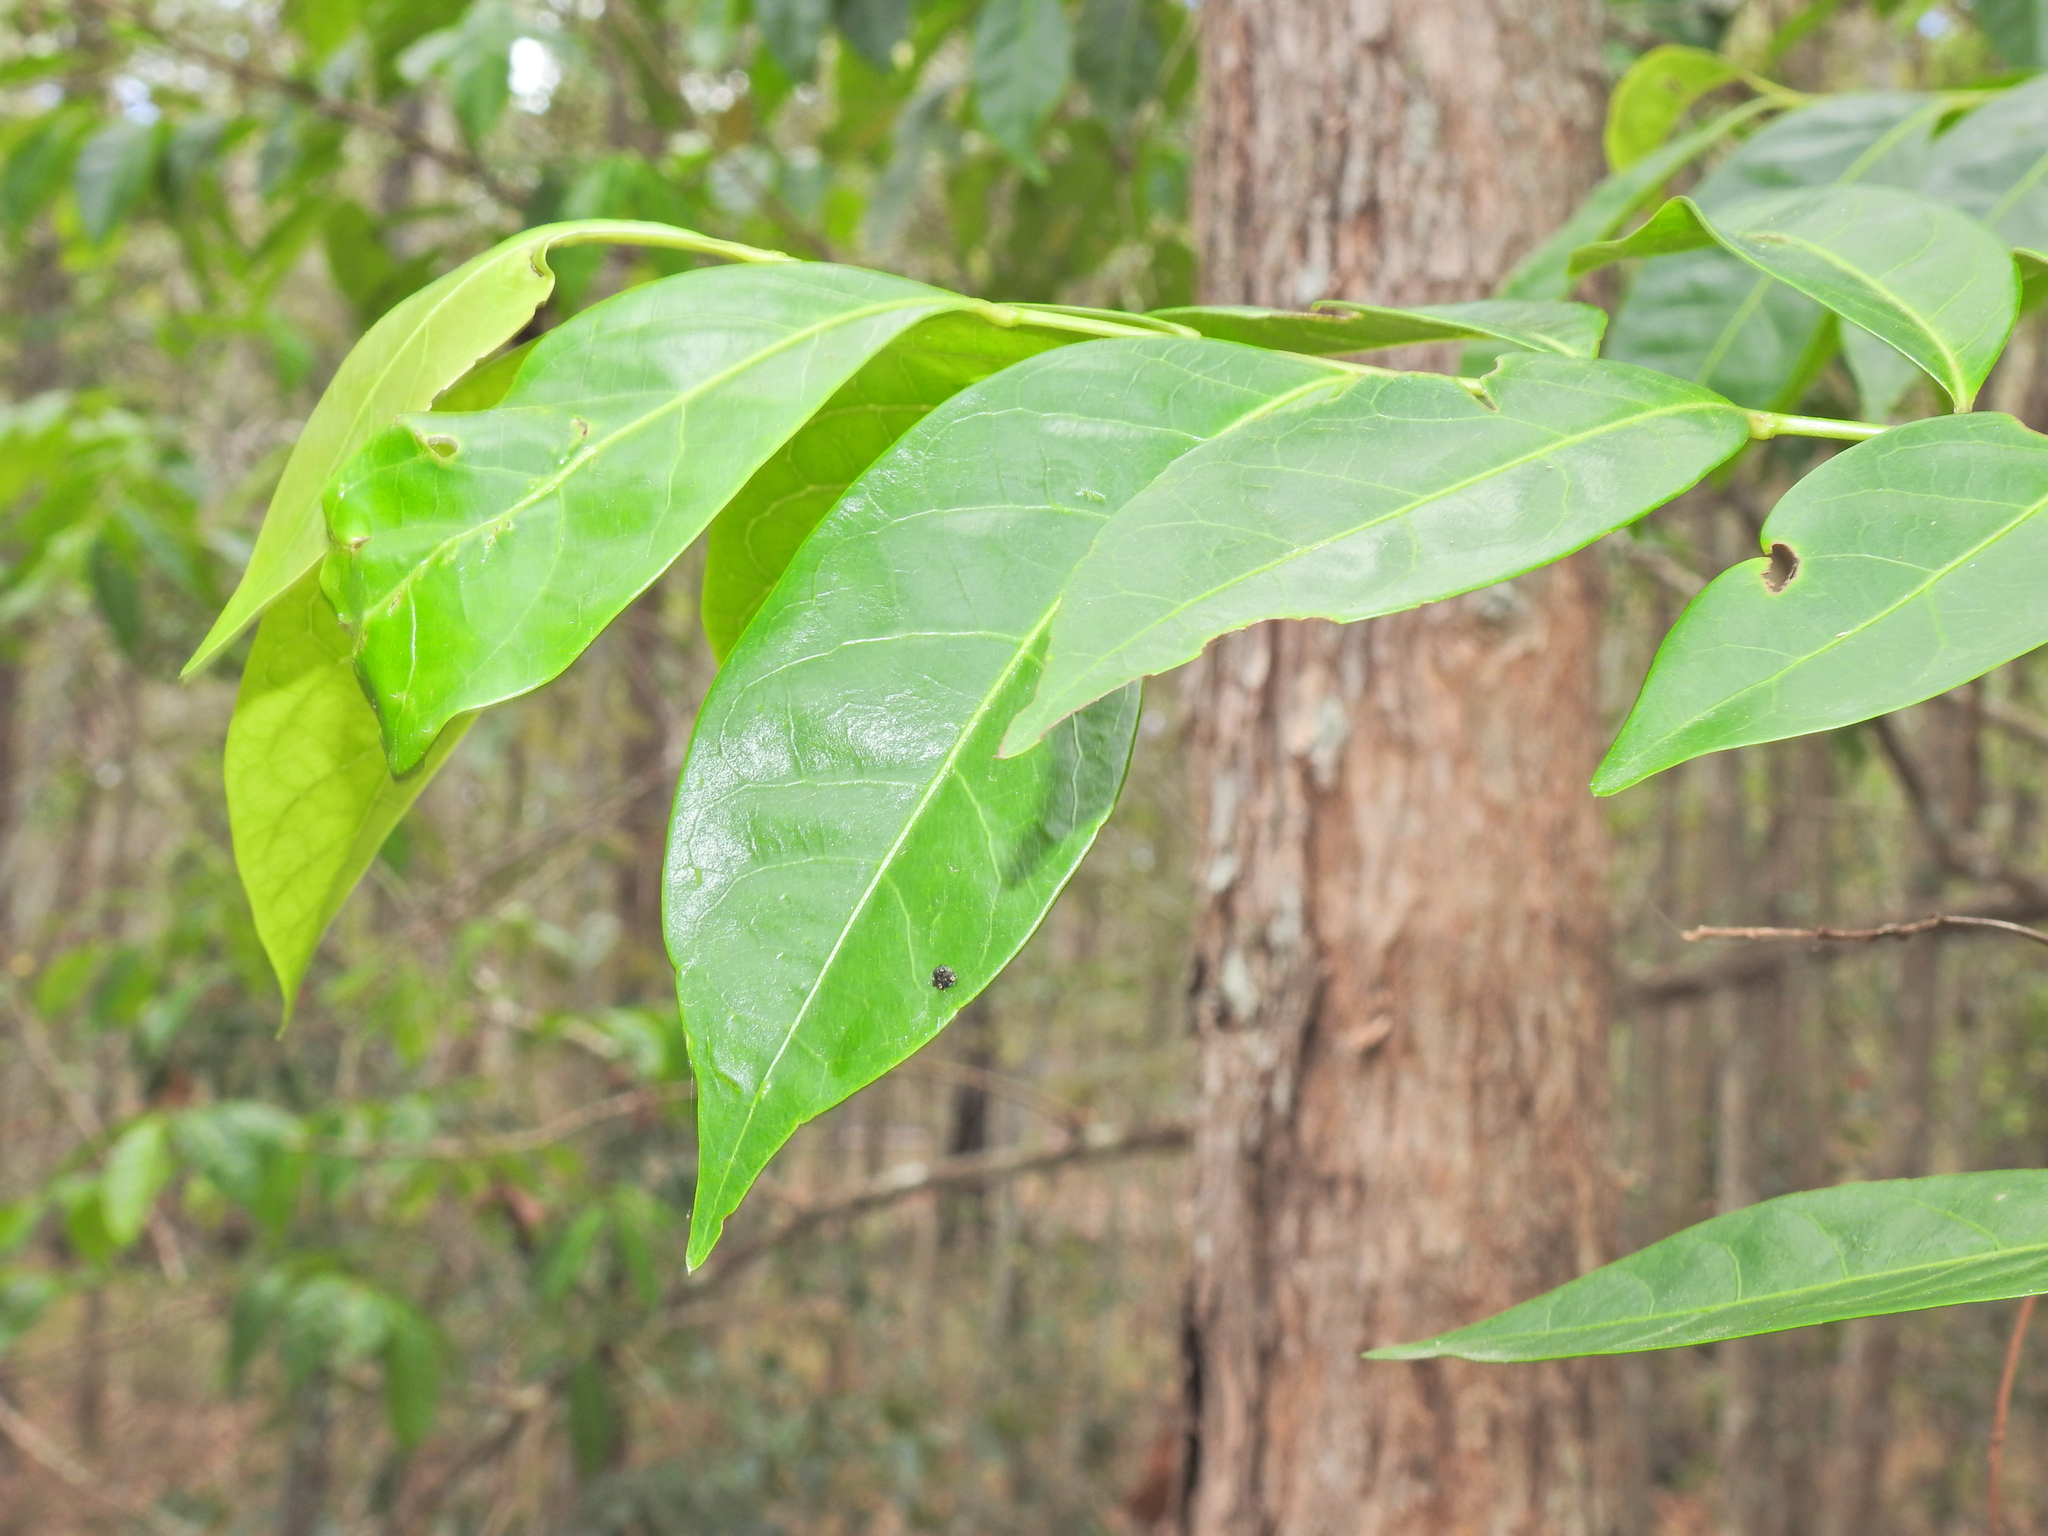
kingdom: Animalia
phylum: Arthropoda
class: Arachnida
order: Araneae
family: Arkyidae
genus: Arkys
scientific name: Arkys curtulus
